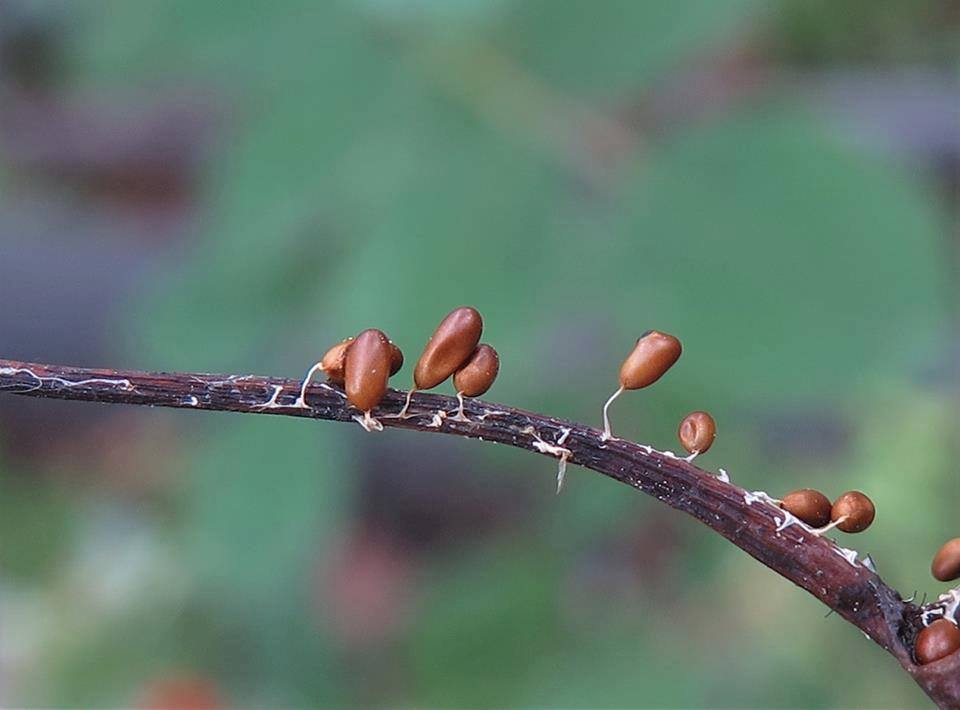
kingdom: Protozoa
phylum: Mycetozoa
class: Myxomycetes
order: Physarales
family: Physaraceae
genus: Leocarpus
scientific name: Leocarpus fragilis
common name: Insect-egg slime
